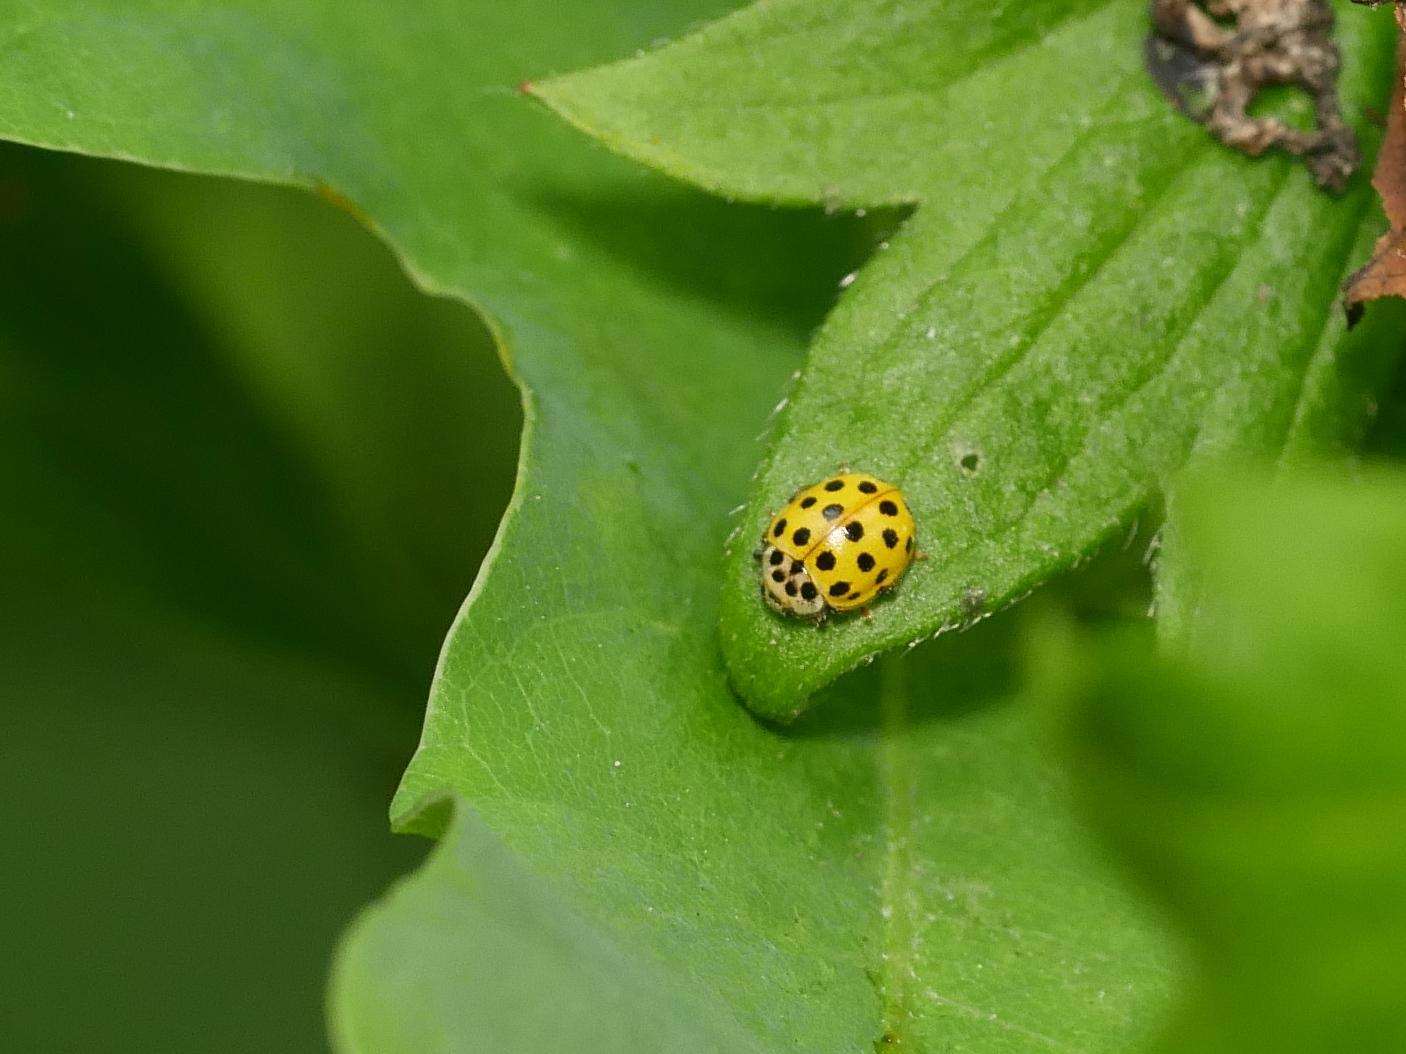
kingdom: Animalia
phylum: Arthropoda
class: Insecta
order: Coleoptera
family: Coccinellidae
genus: Psyllobora
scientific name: Psyllobora vigintiduopunctata
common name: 22-spot ladybird
